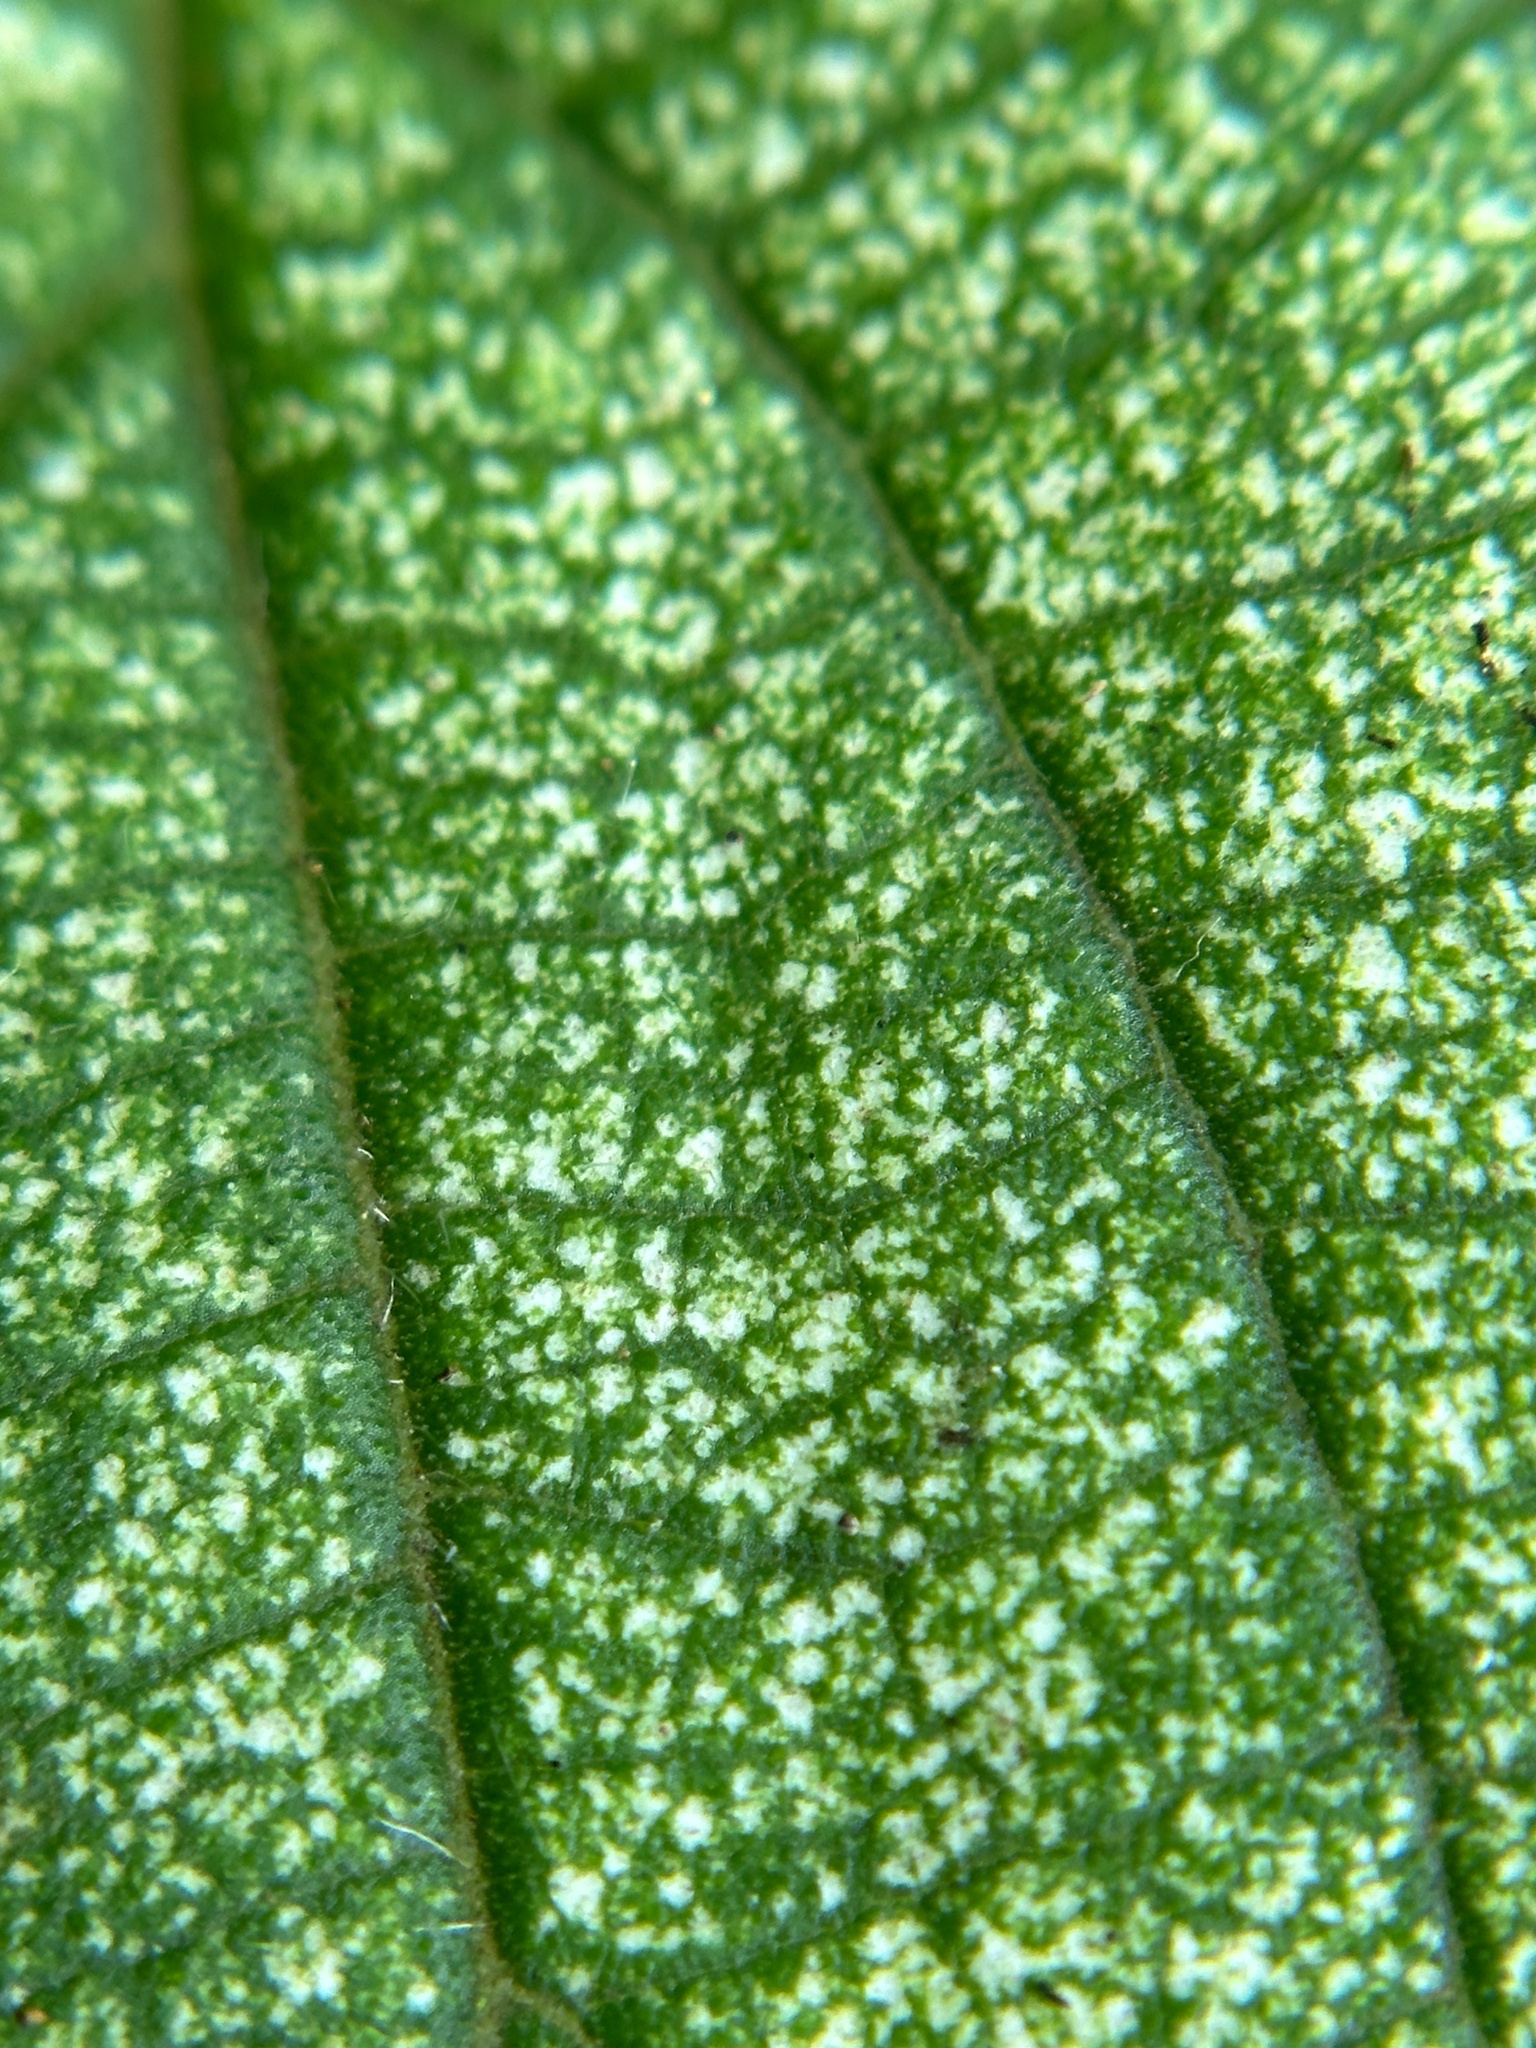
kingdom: Plantae
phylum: Tracheophyta
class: Magnoliopsida
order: Rosales
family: Cannabaceae
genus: Trema
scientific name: Trema orientale
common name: Indian charcoal tree
